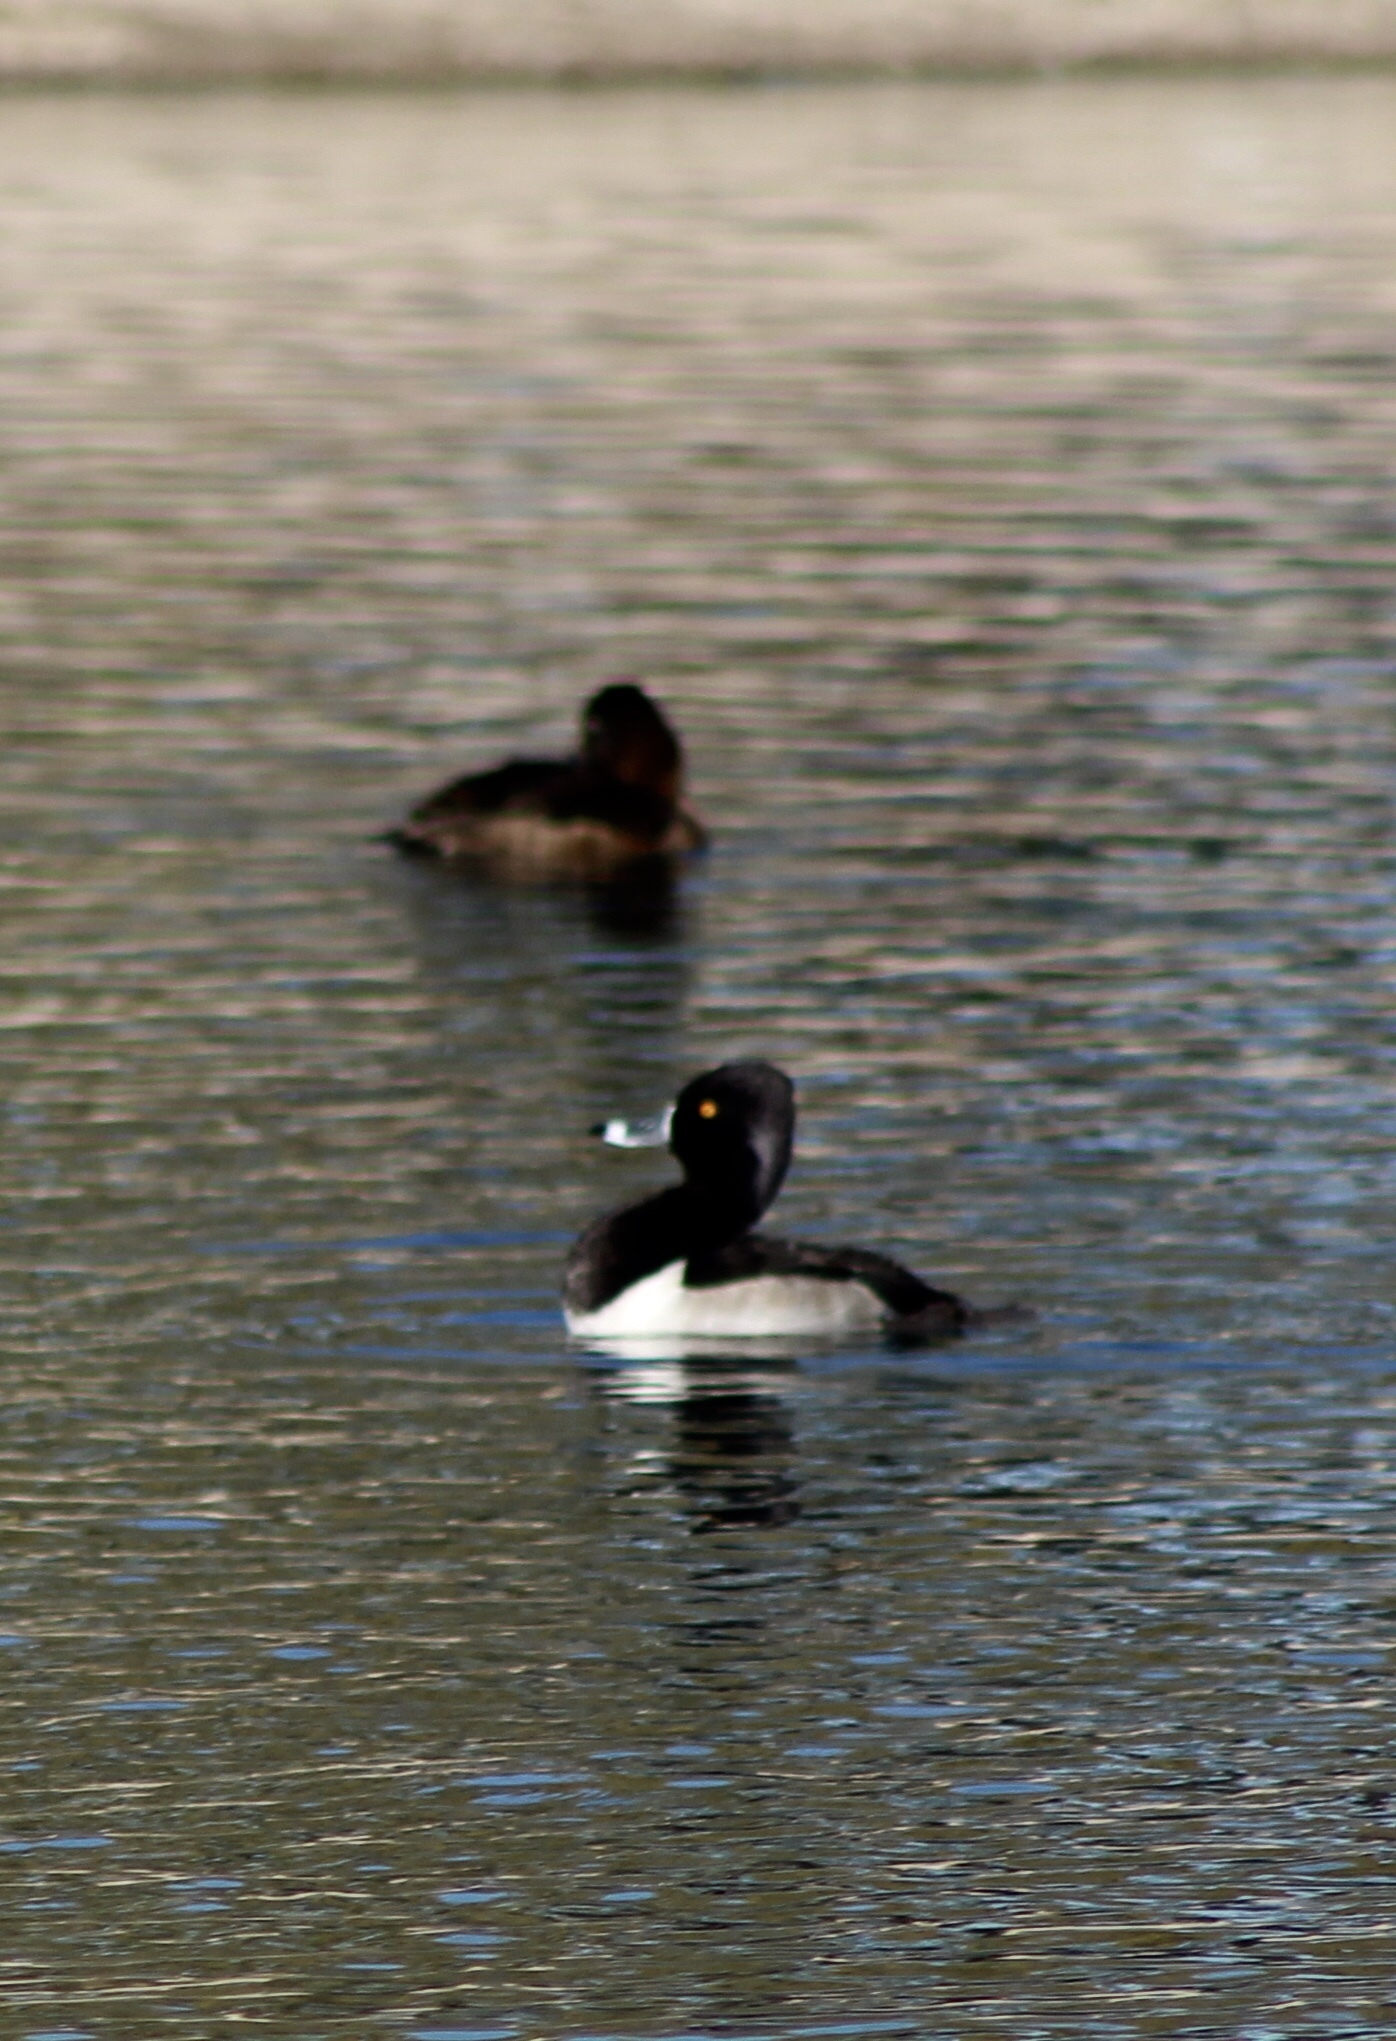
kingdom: Animalia
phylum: Chordata
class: Aves
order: Anseriformes
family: Anatidae
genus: Aythya
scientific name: Aythya collaris
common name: Ring-necked duck
